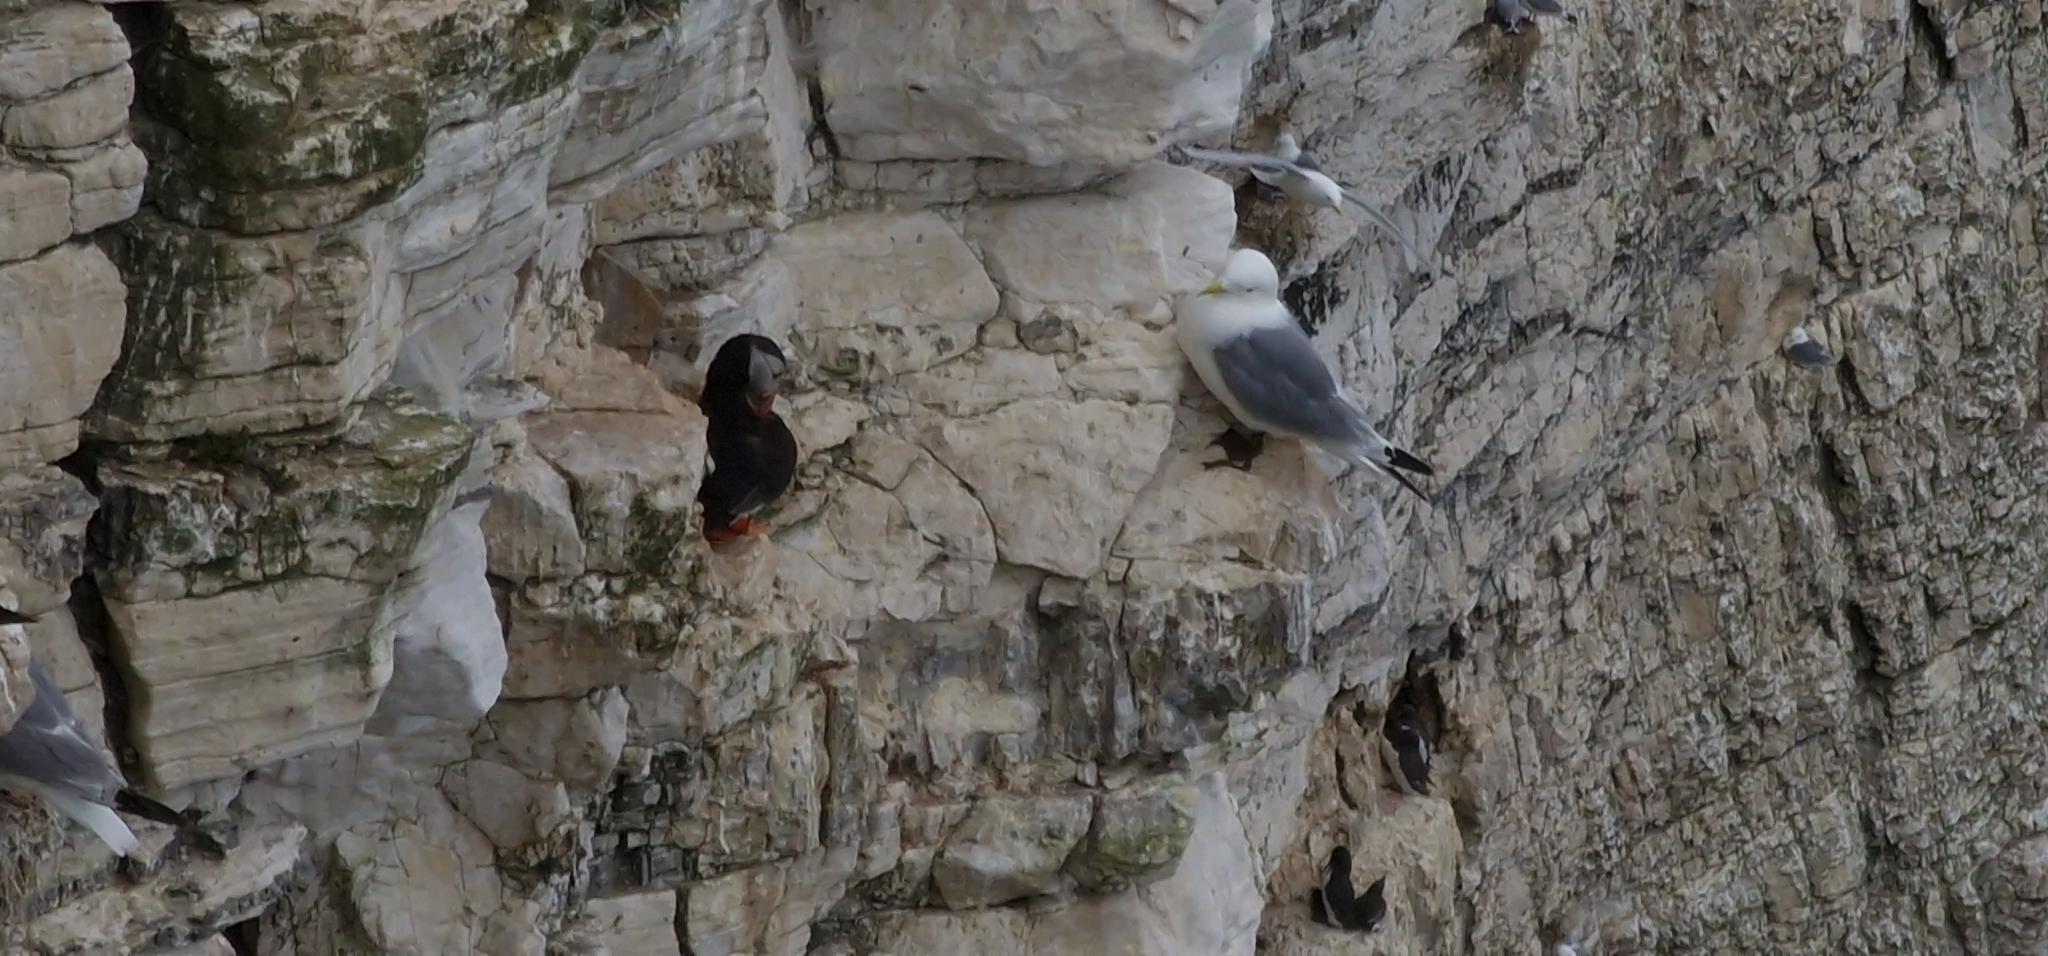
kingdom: Animalia
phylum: Chordata
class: Aves
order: Charadriiformes
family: Alcidae
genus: Fratercula
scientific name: Fratercula arctica
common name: Atlantic puffin
